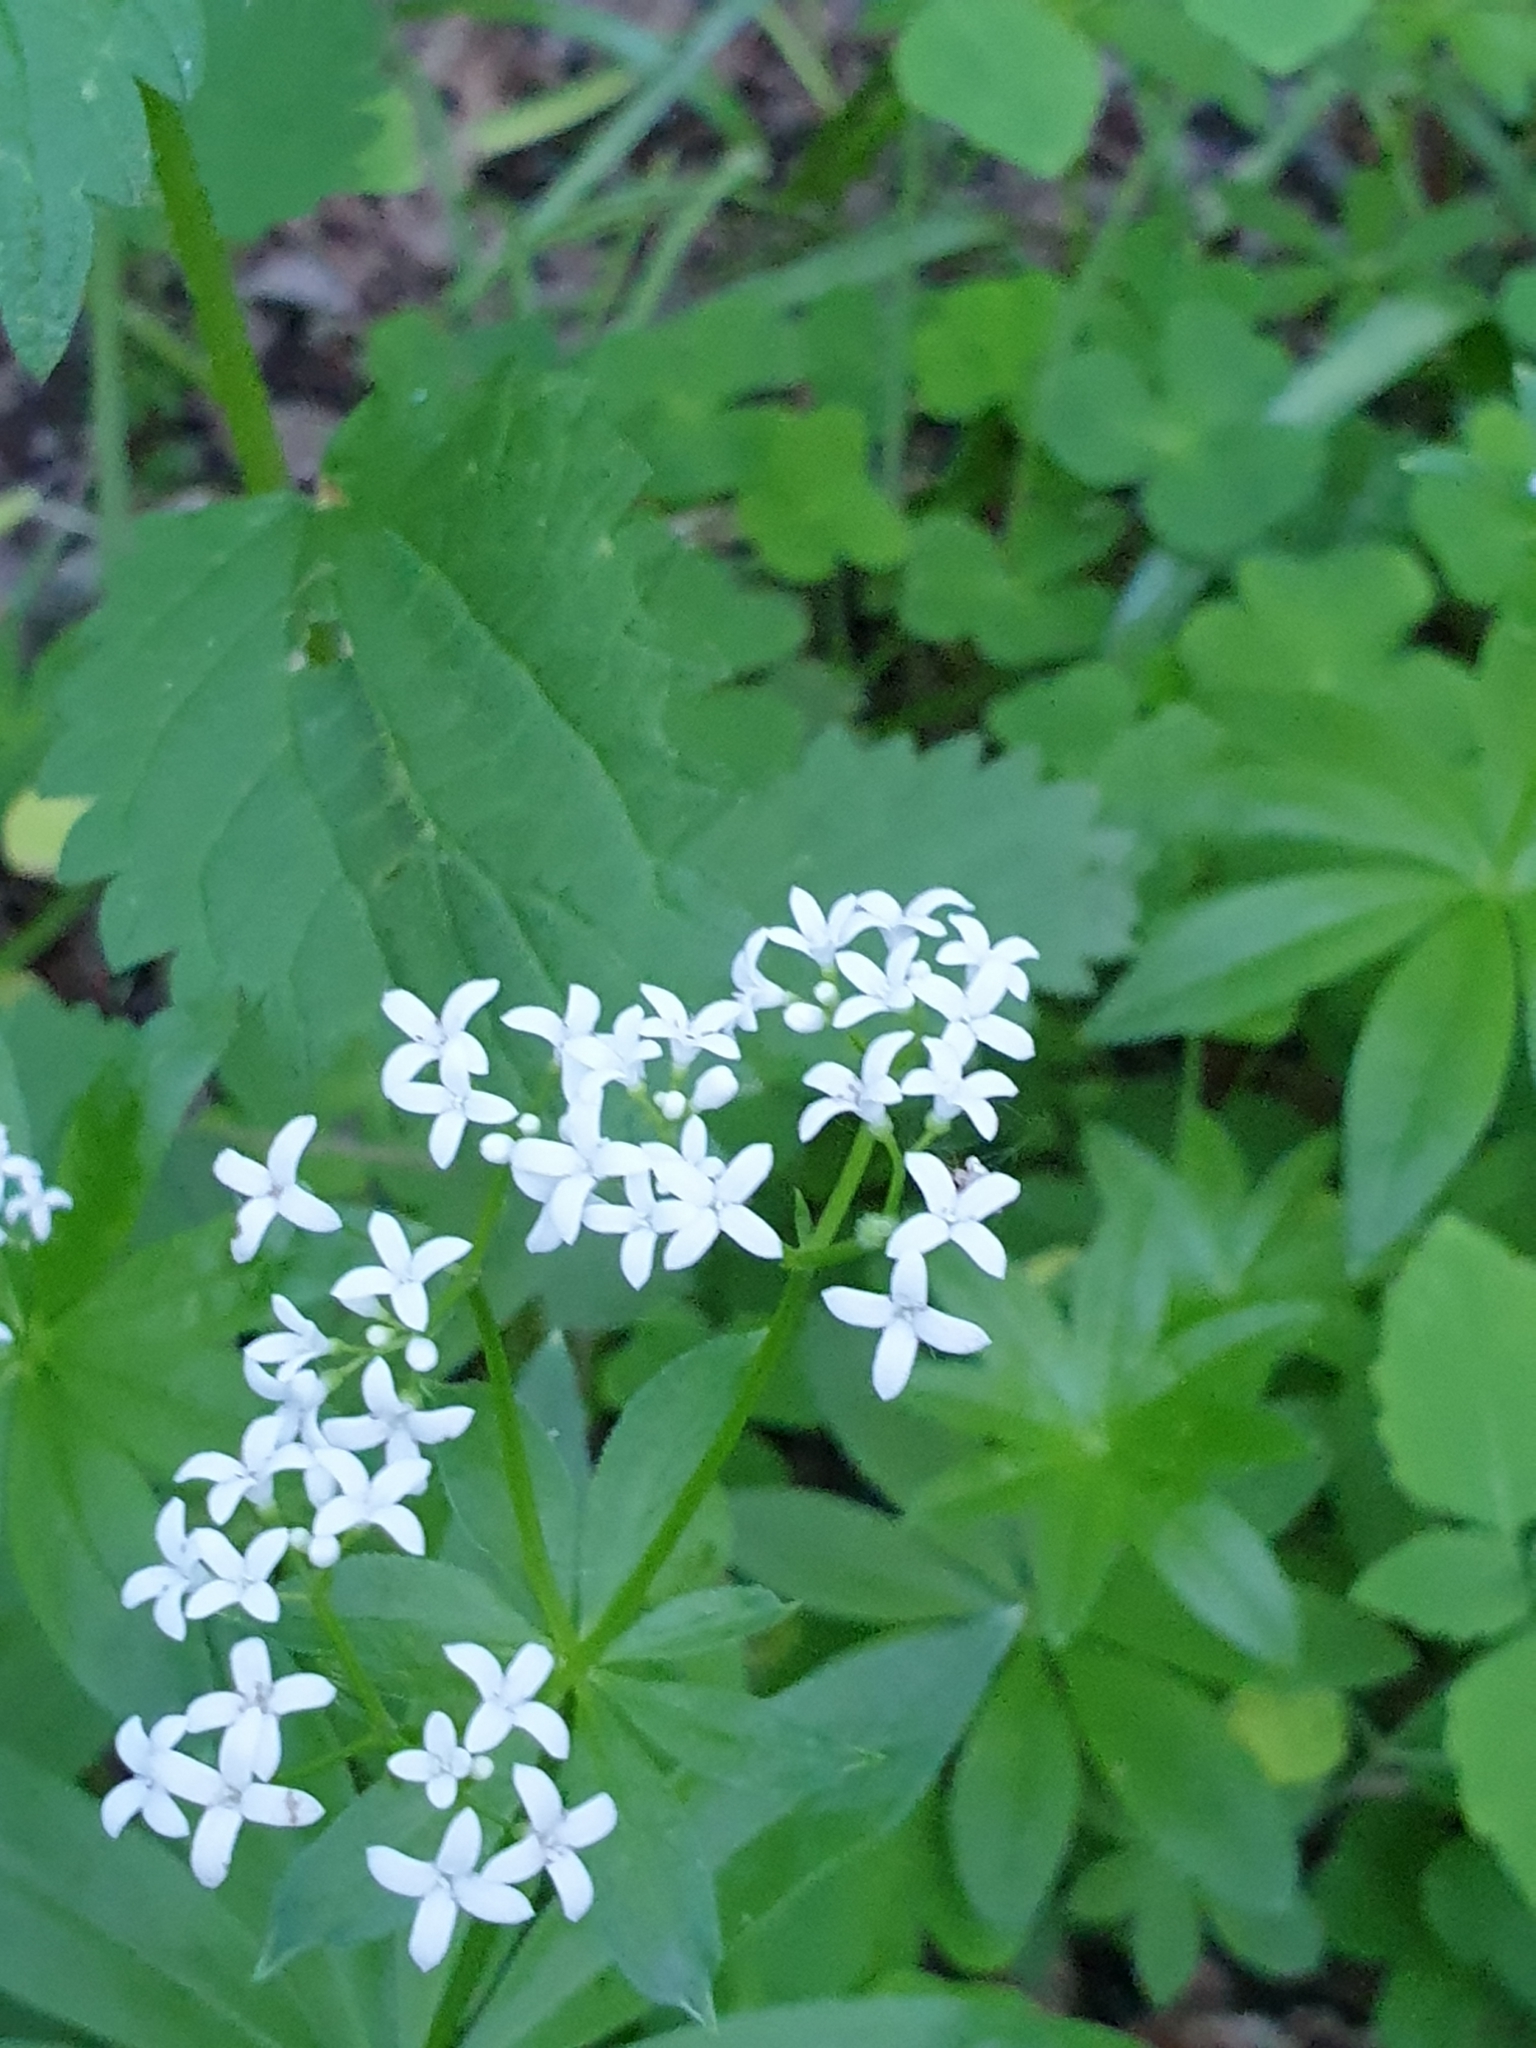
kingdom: Plantae
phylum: Tracheophyta
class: Magnoliopsida
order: Gentianales
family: Rubiaceae
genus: Galium
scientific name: Galium odoratum
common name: Sweet woodruff
